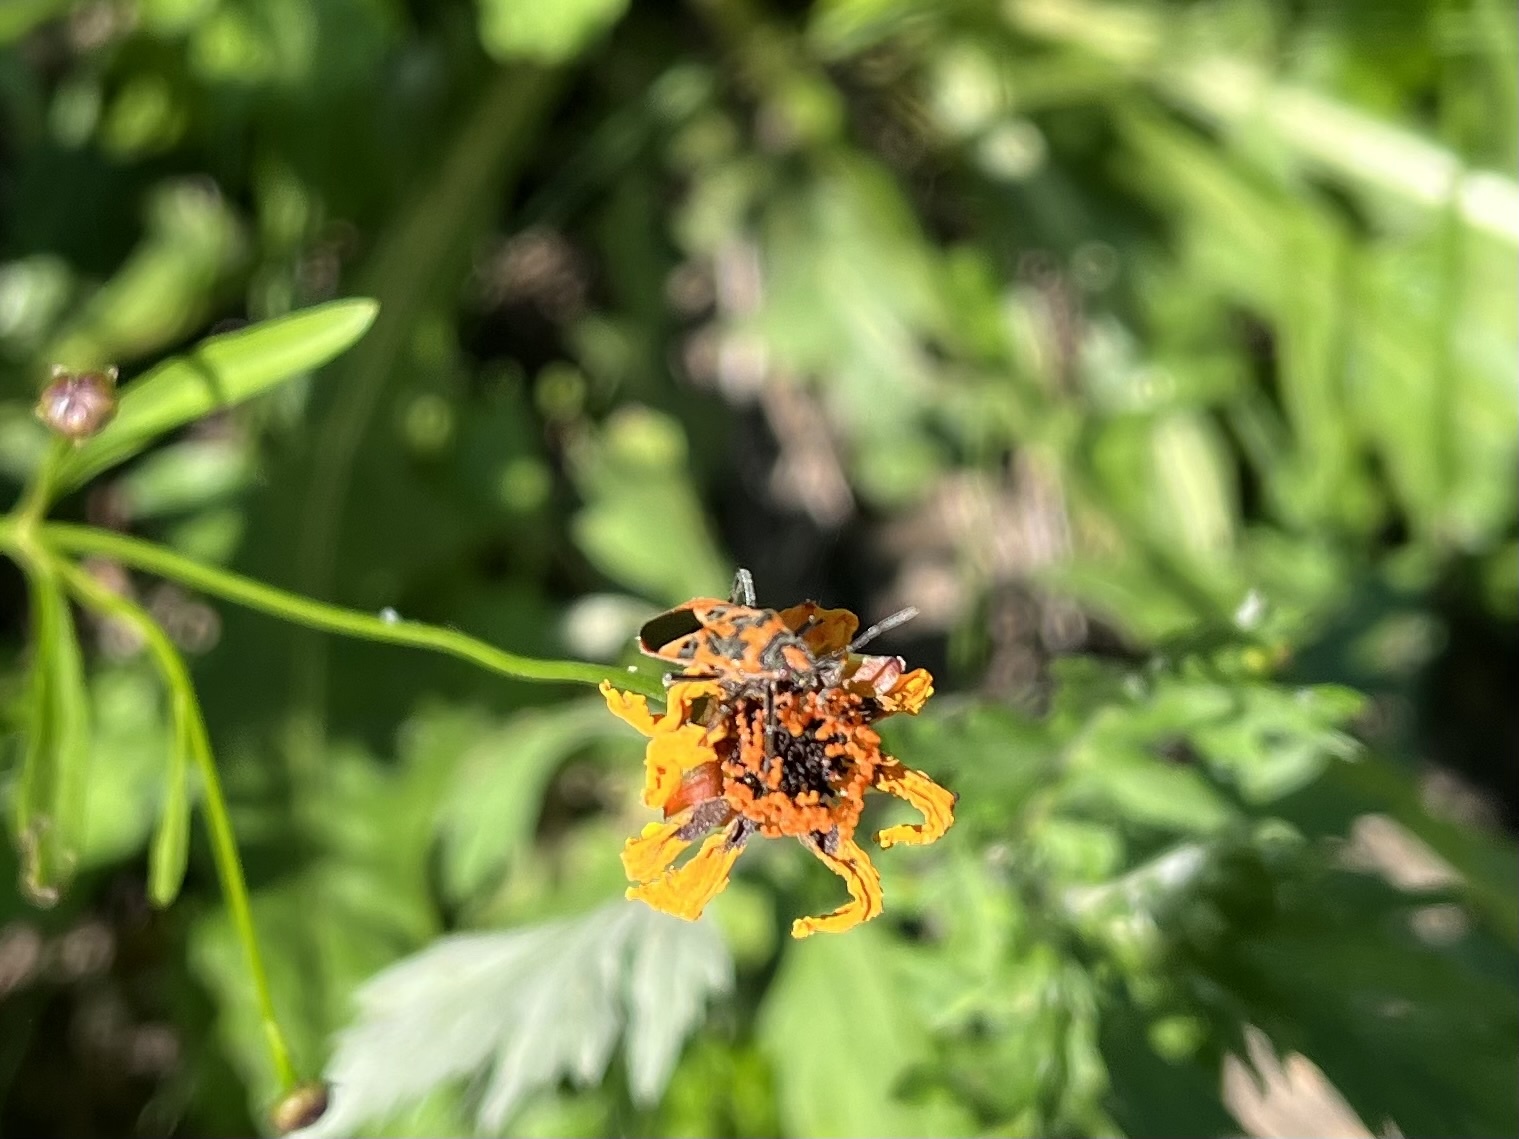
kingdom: Animalia
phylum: Arthropoda
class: Insecta
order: Hemiptera
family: Rhopalidae
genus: Corizus
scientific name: Corizus hyoscyami
